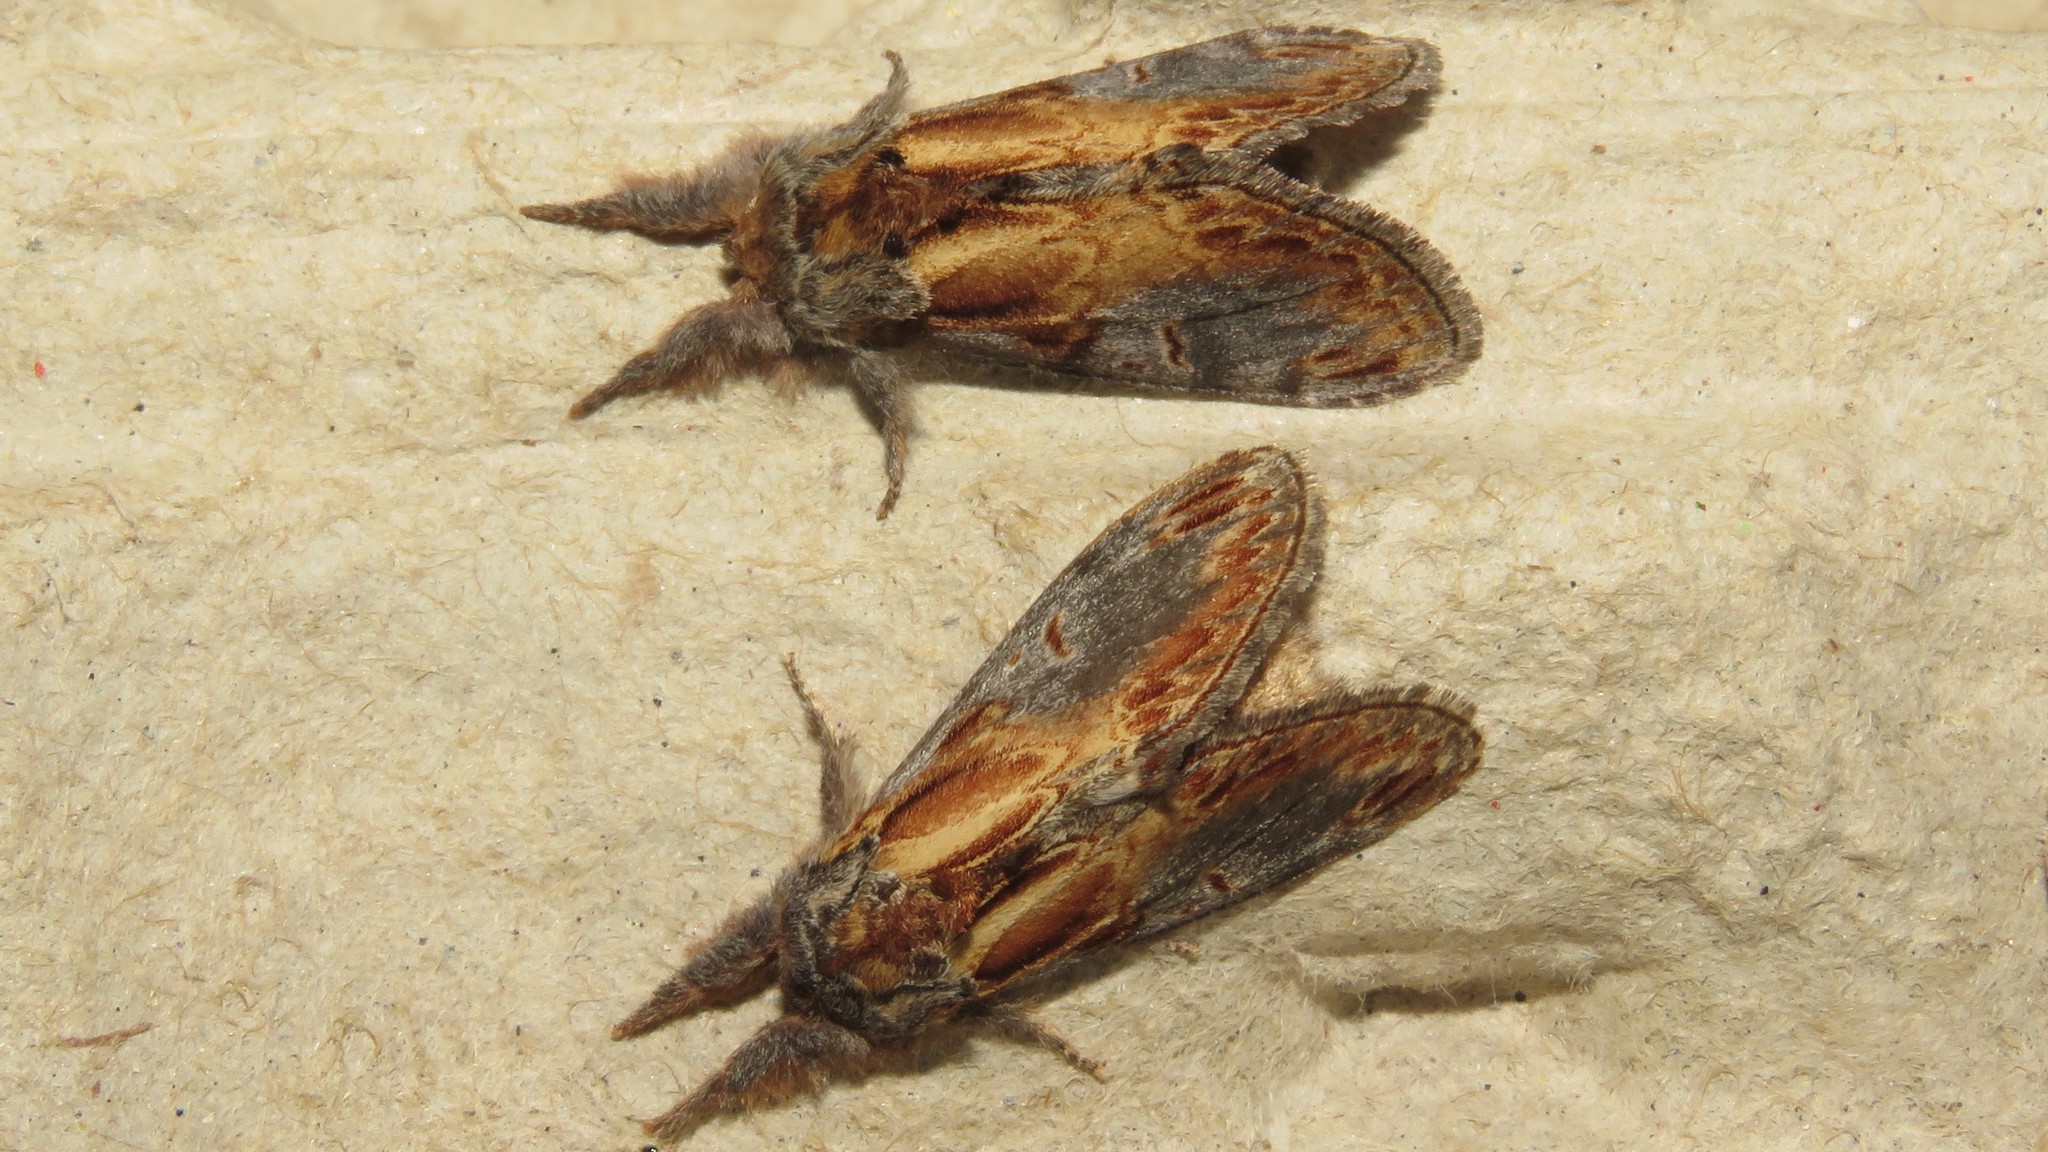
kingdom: Animalia
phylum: Arthropoda
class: Insecta
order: Lepidoptera
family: Notodontidae
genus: Notodonta
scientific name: Notodonta scitipennis
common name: Finned-willow prominent moth
